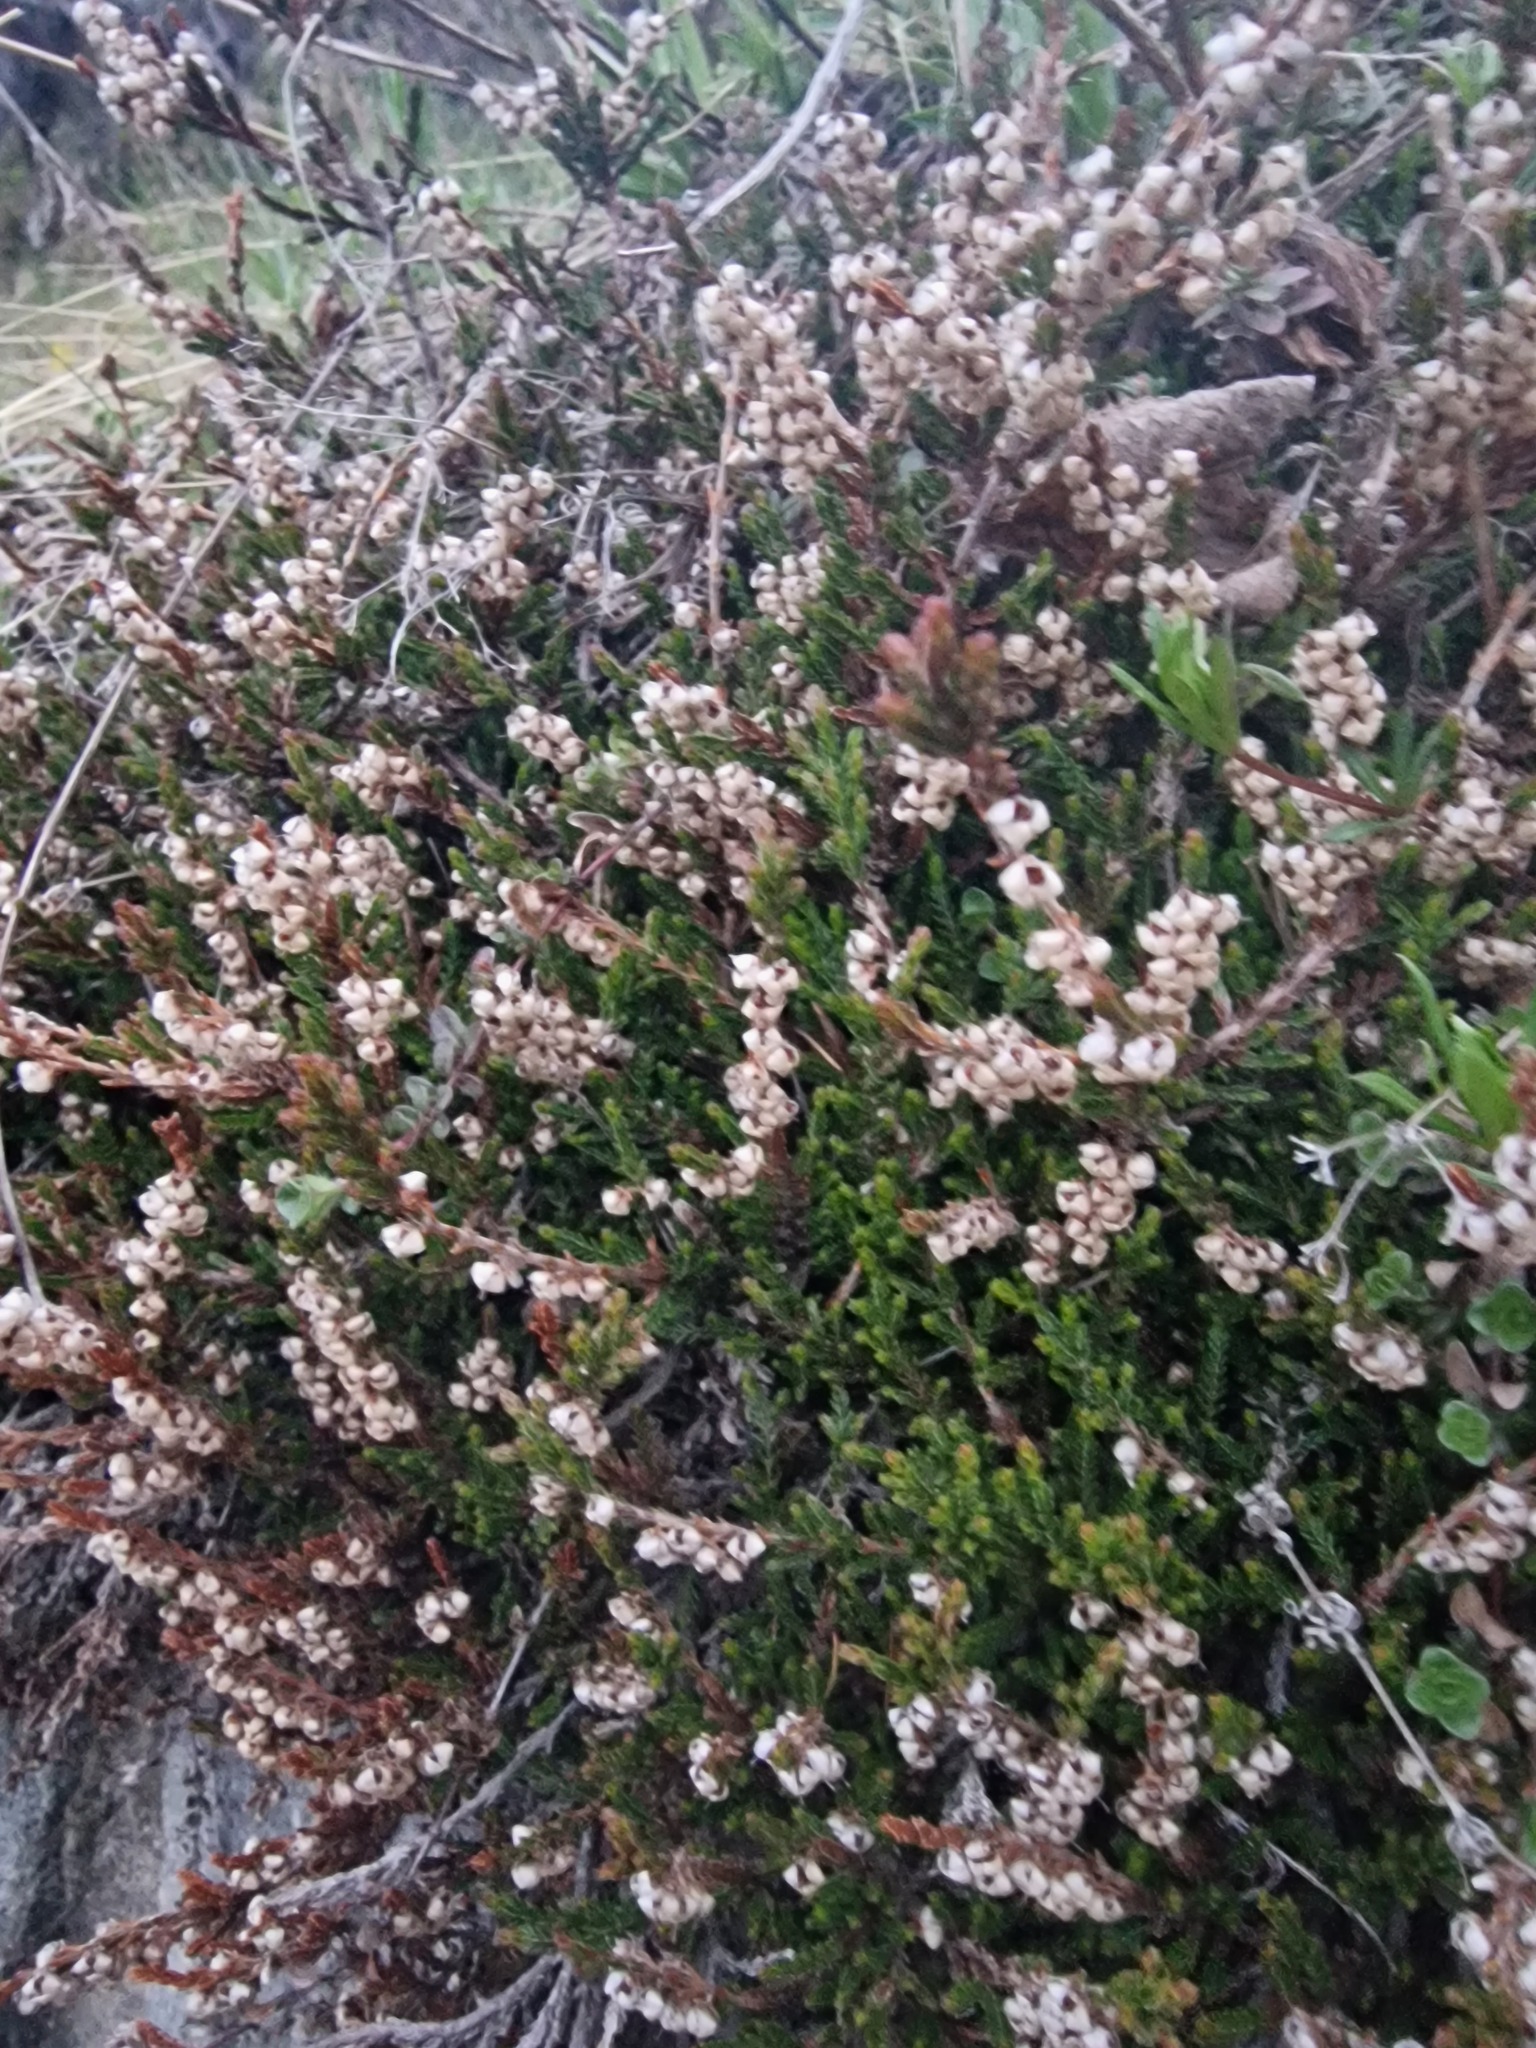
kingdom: Plantae
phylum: Tracheophyta
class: Magnoliopsida
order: Ericales
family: Ericaceae
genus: Calluna
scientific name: Calluna vulgaris
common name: Heather
